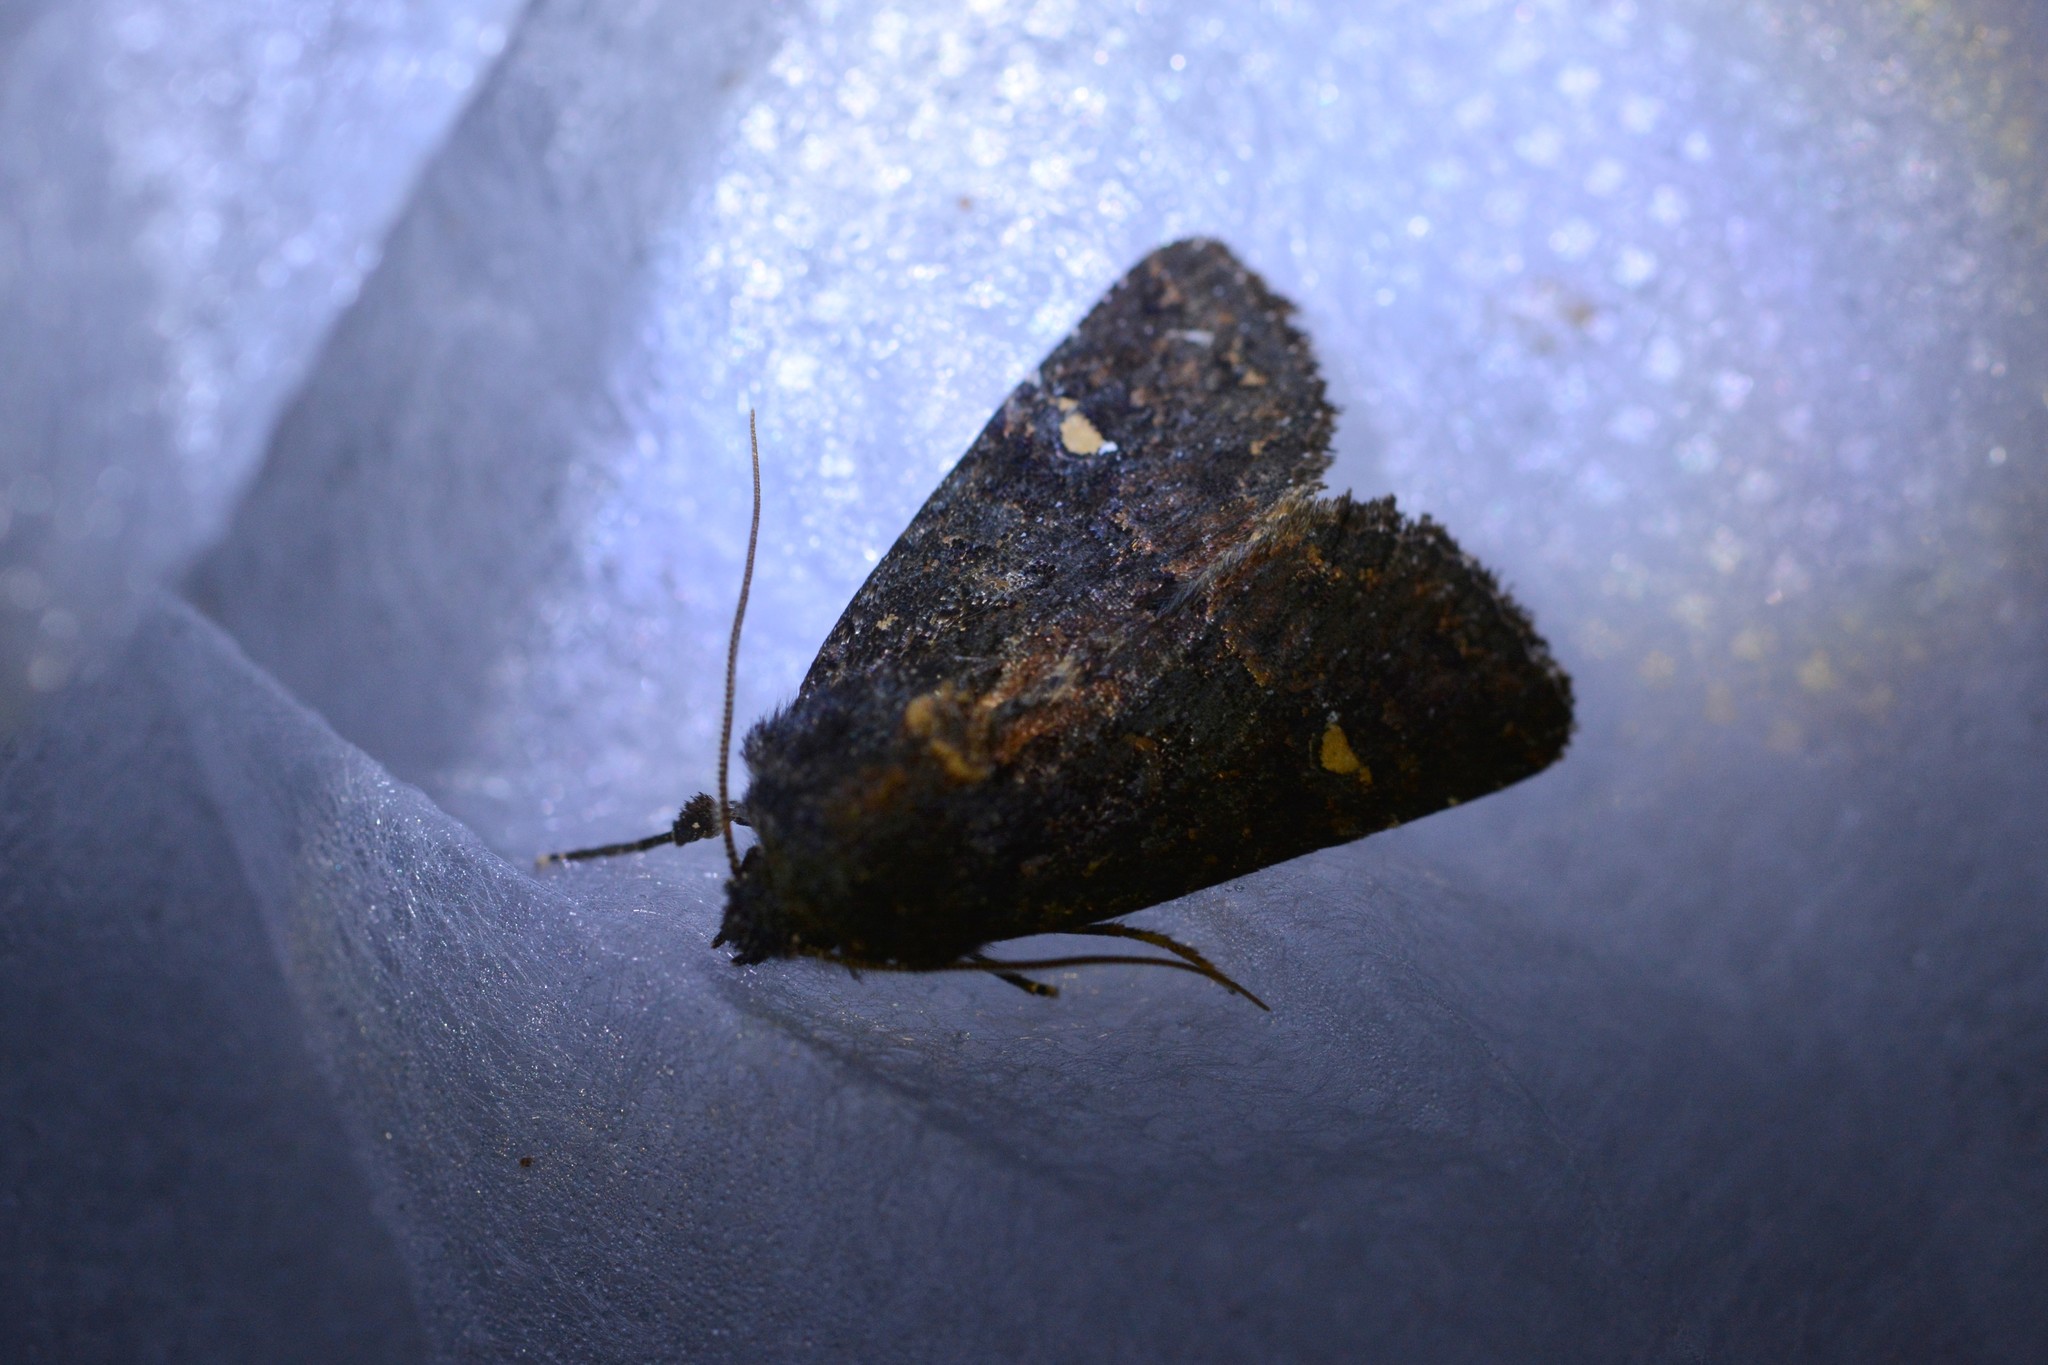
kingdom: Animalia
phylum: Arthropoda
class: Insecta
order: Lepidoptera
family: Noctuidae
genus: Meterana
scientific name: Meterana vitiosa
